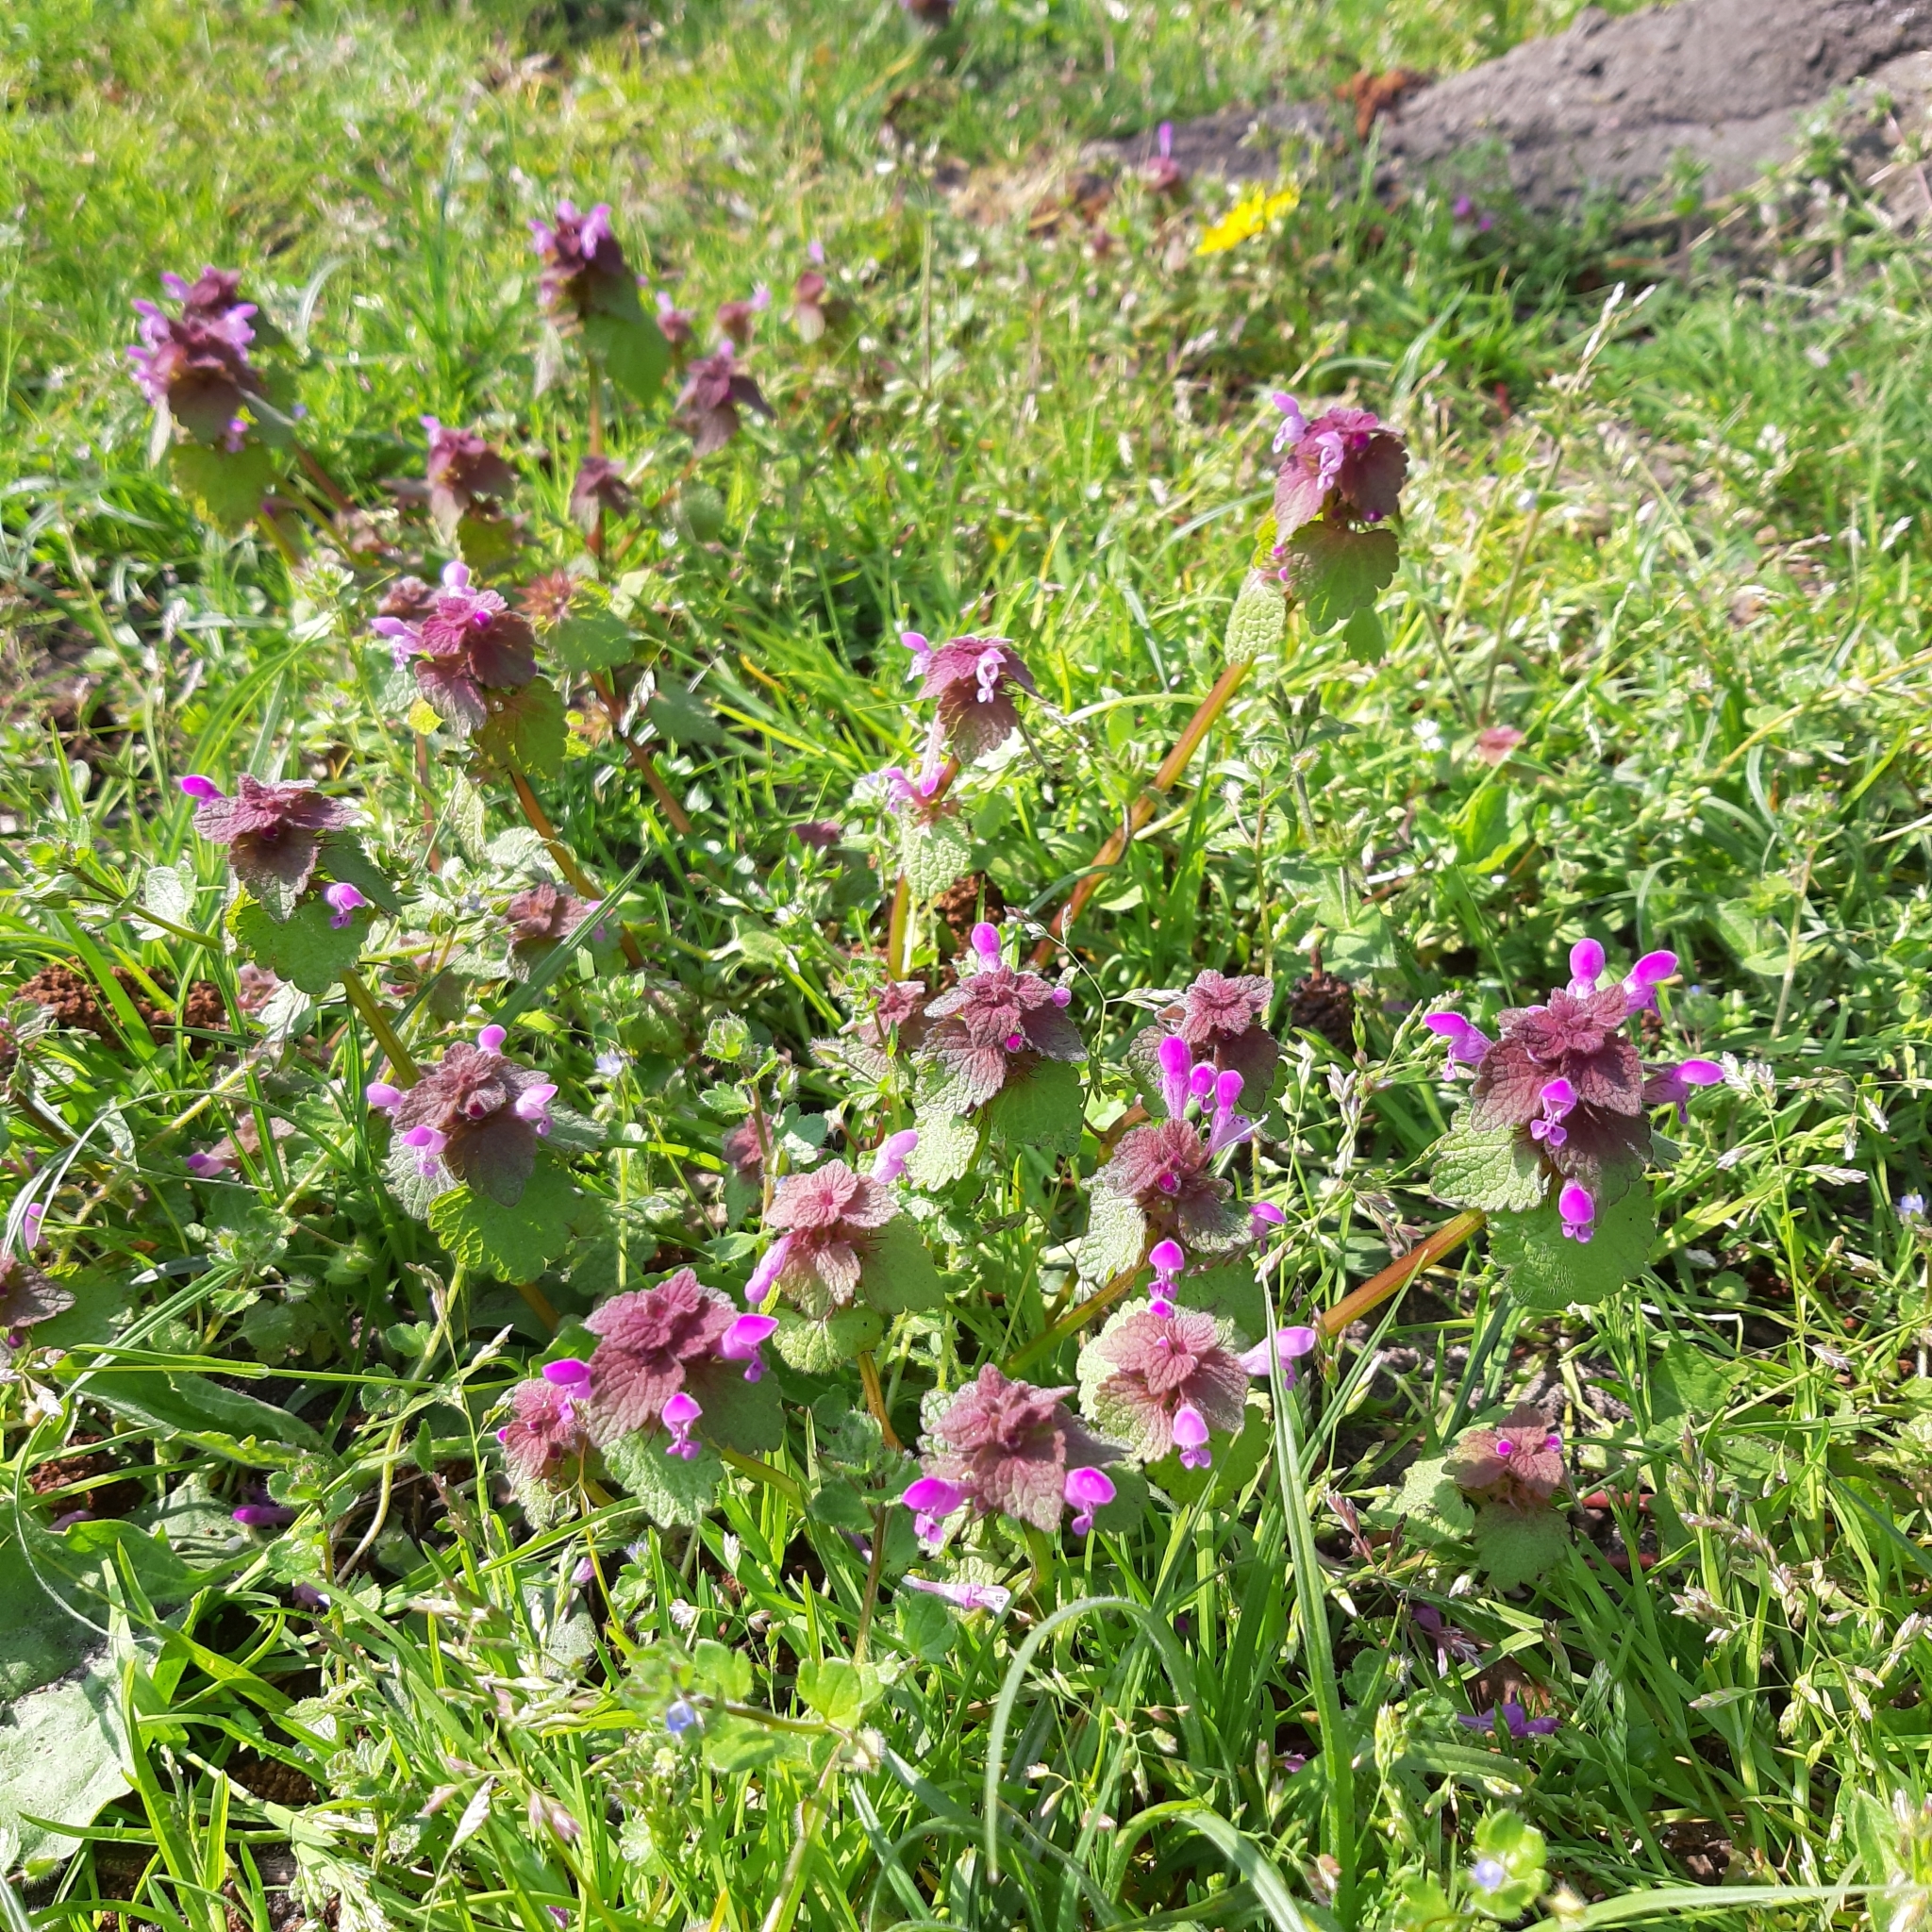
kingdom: Plantae
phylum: Tracheophyta
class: Magnoliopsida
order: Lamiales
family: Lamiaceae
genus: Lamium
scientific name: Lamium purpureum
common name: Red dead-nettle
